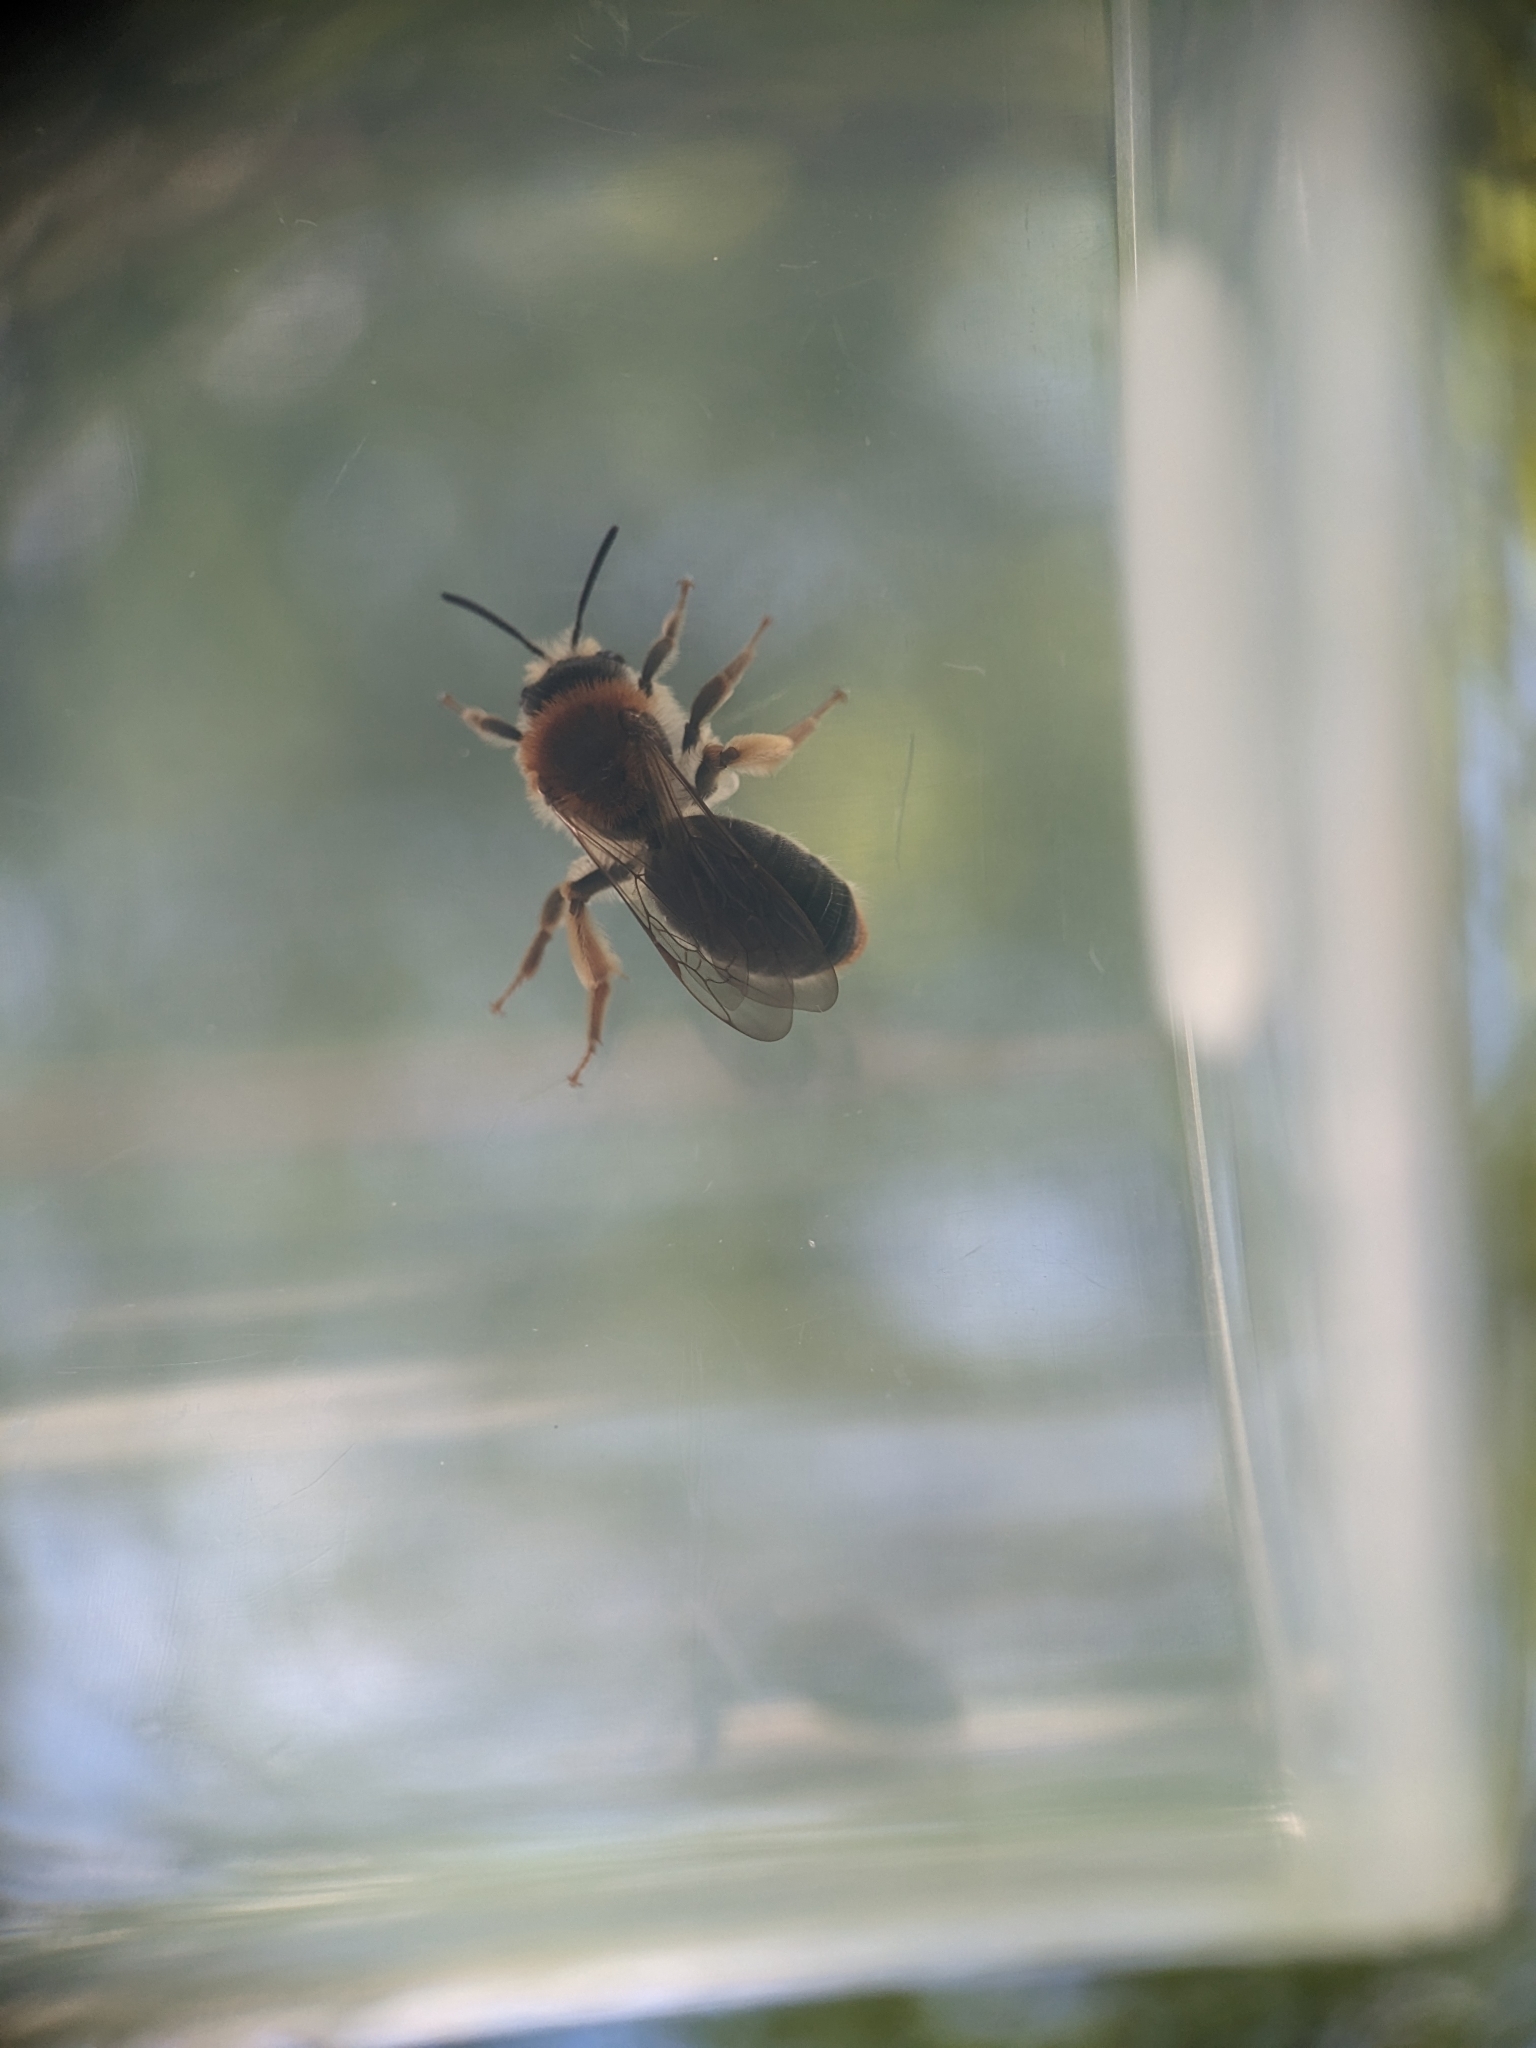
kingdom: Animalia
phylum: Arthropoda
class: Insecta
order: Hymenoptera
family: Andrenidae
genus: Andrena
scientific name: Andrena haemorrhoa
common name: Early mining bee
